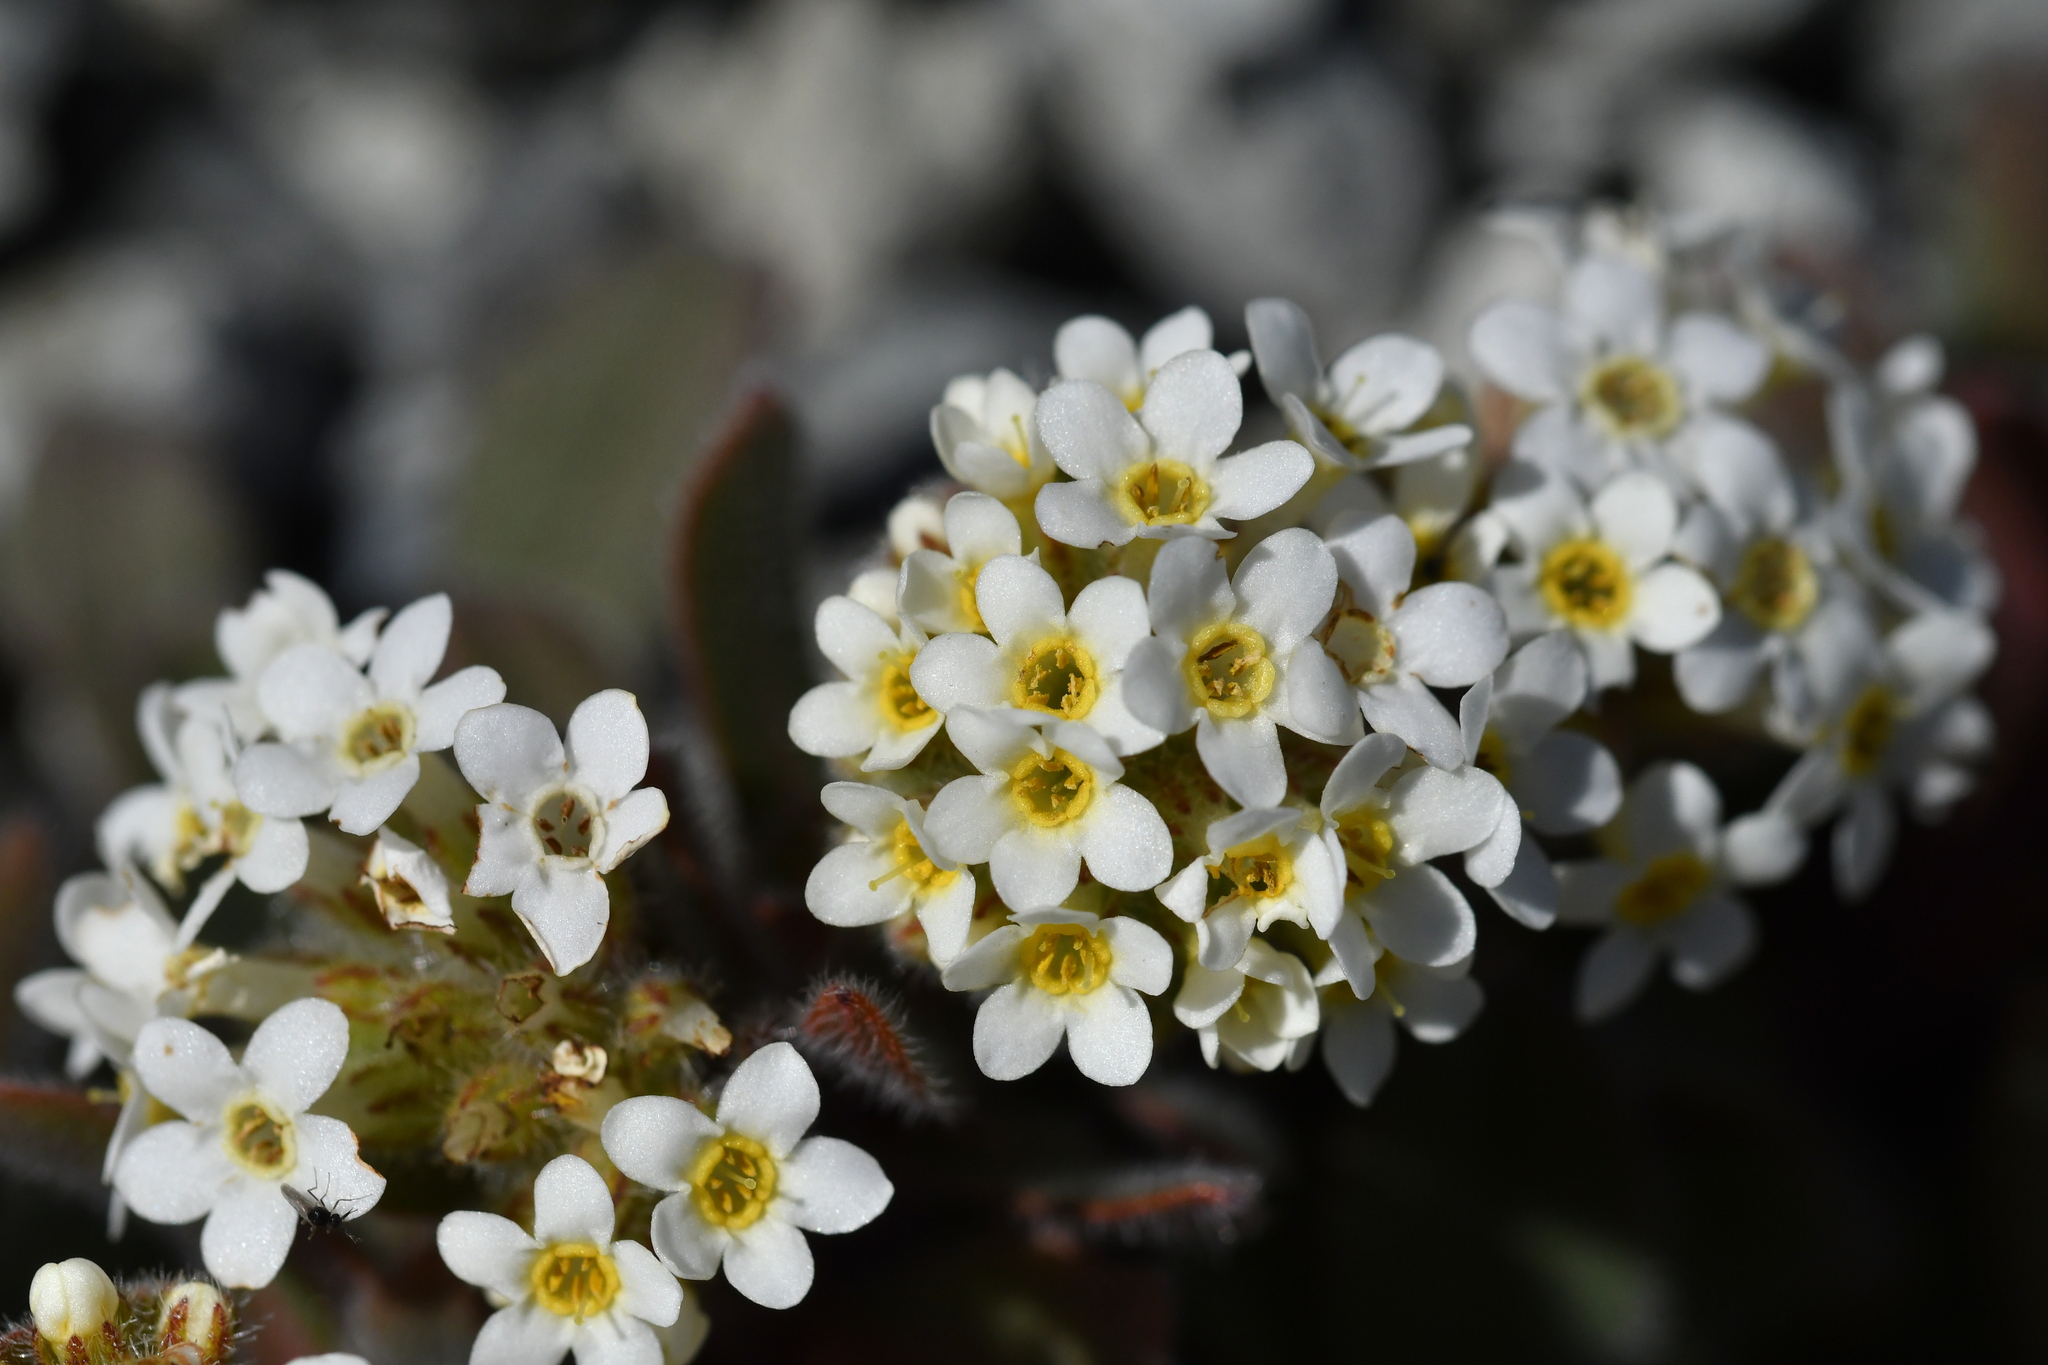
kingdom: Plantae
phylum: Tracheophyta
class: Magnoliopsida
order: Boraginales
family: Boraginaceae
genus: Myosotis
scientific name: Myosotis traversii
